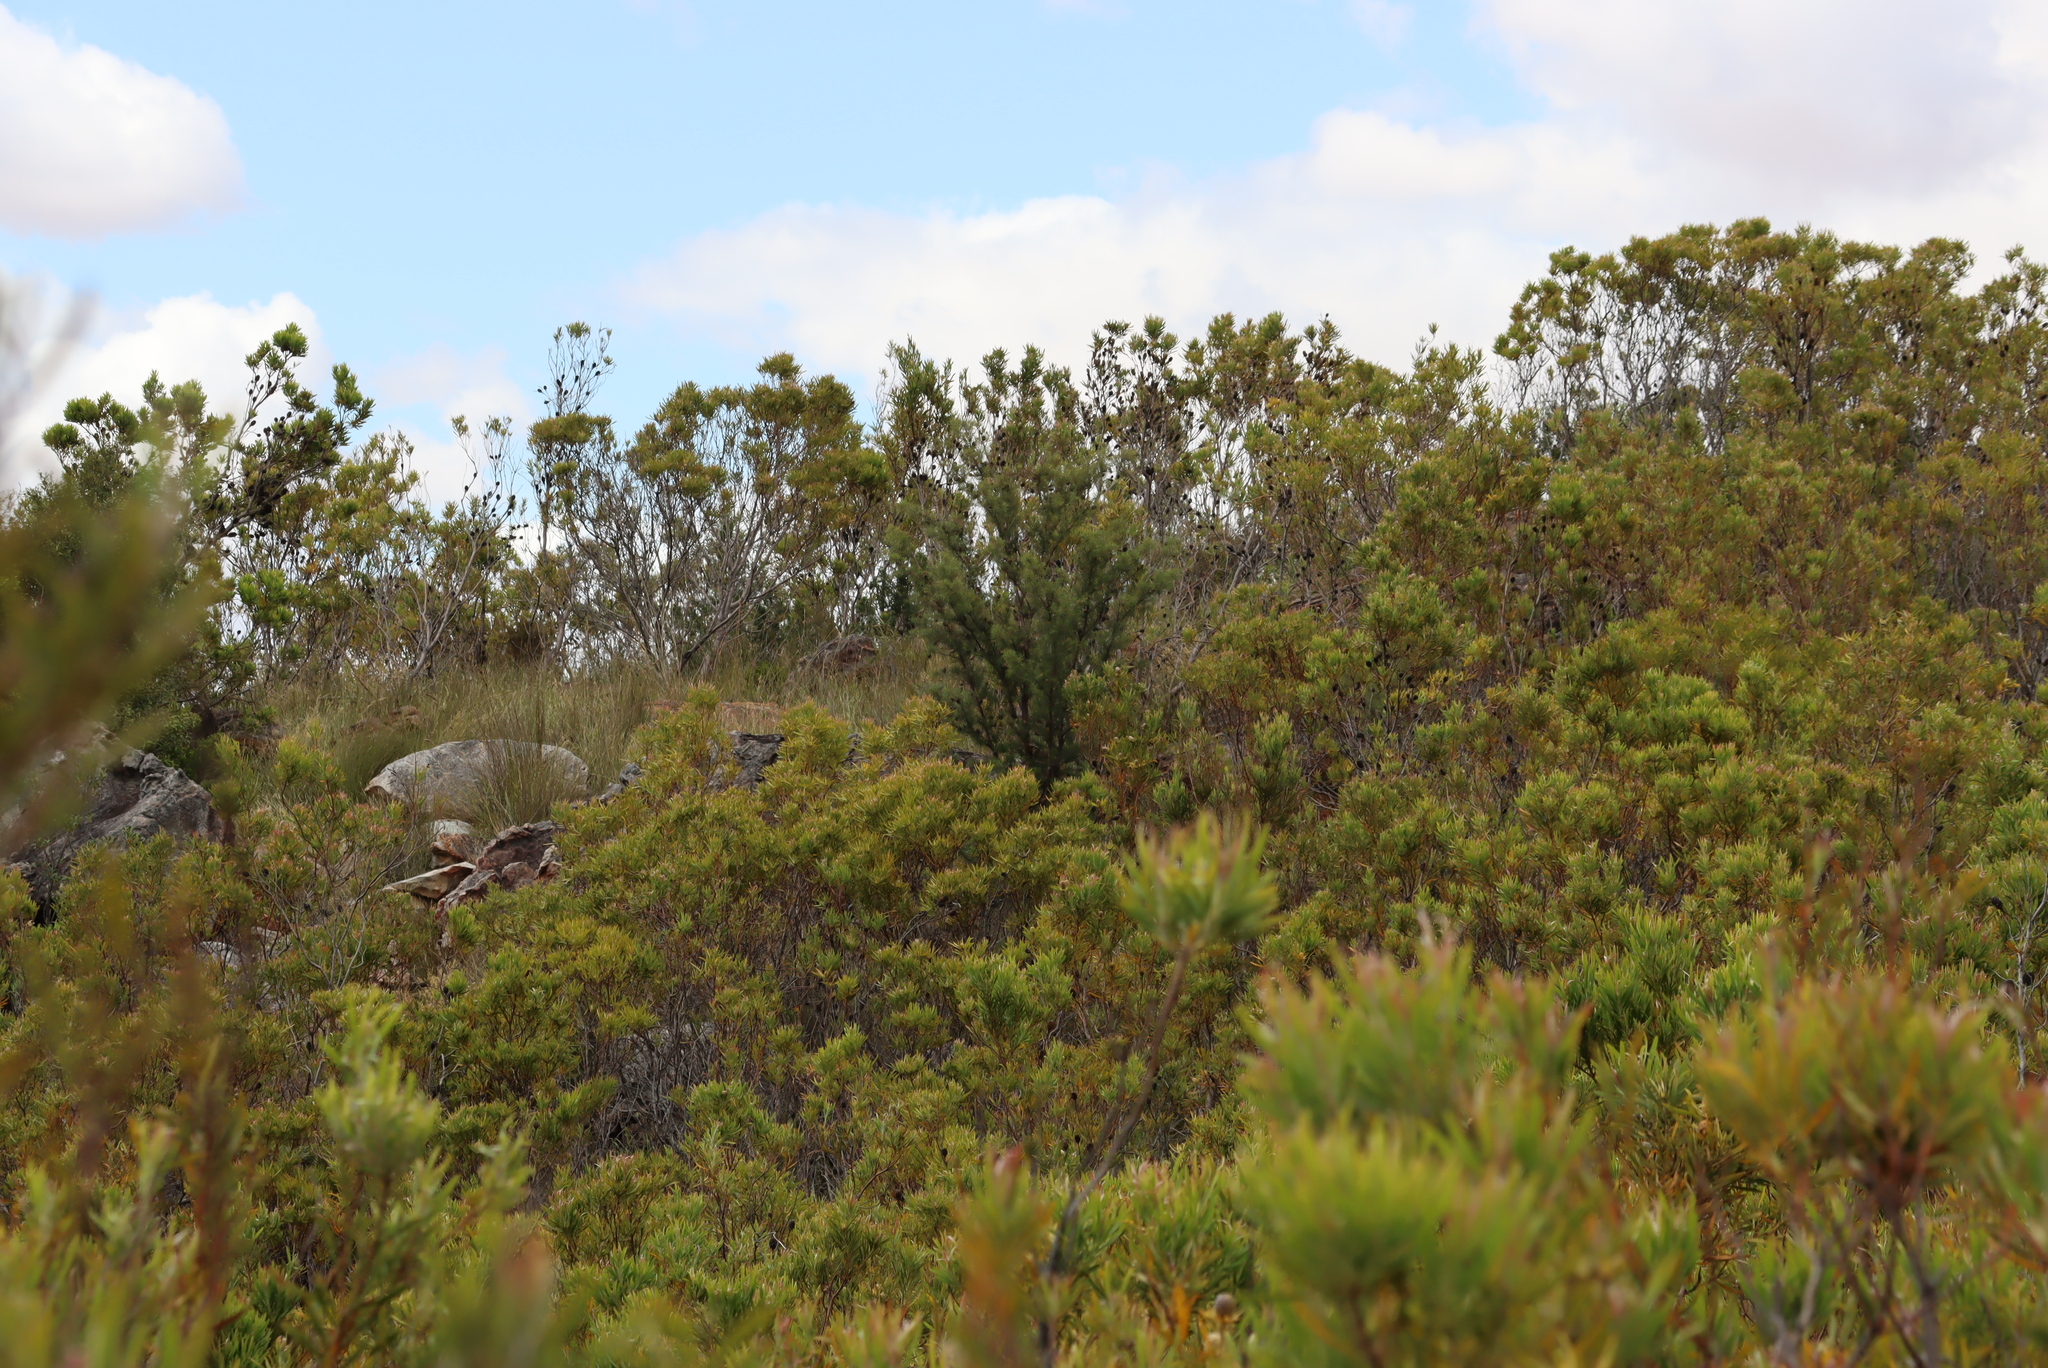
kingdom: Plantae
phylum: Tracheophyta
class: Magnoliopsida
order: Proteales
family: Proteaceae
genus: Hakea
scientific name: Hakea sericea
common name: Needle bush
